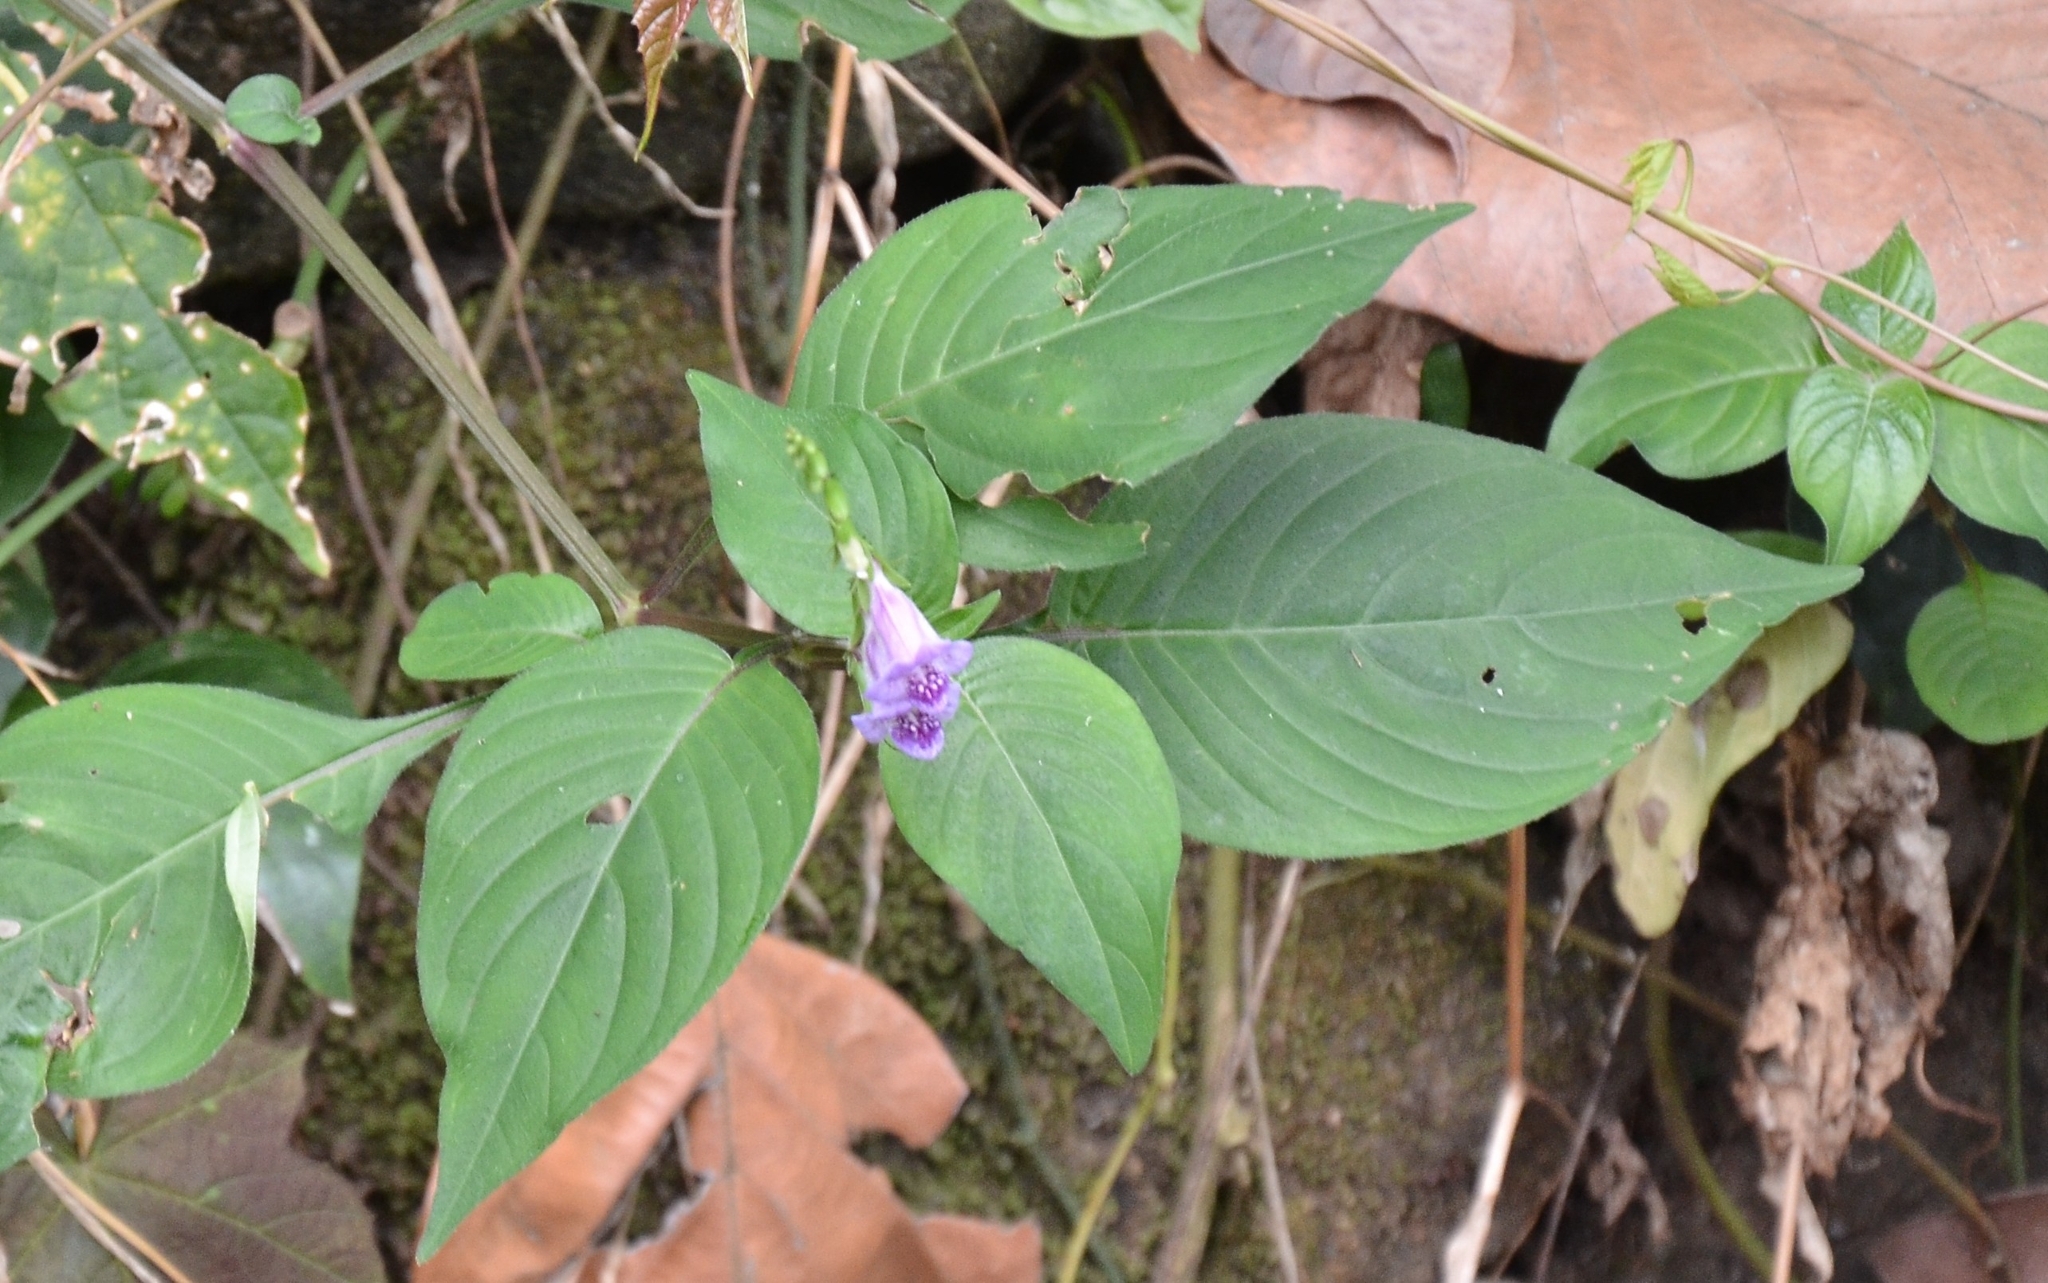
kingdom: Plantae
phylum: Tracheophyta
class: Magnoliopsida
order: Lamiales
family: Acanthaceae
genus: Asystasia
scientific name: Asystasia dalzelliana
